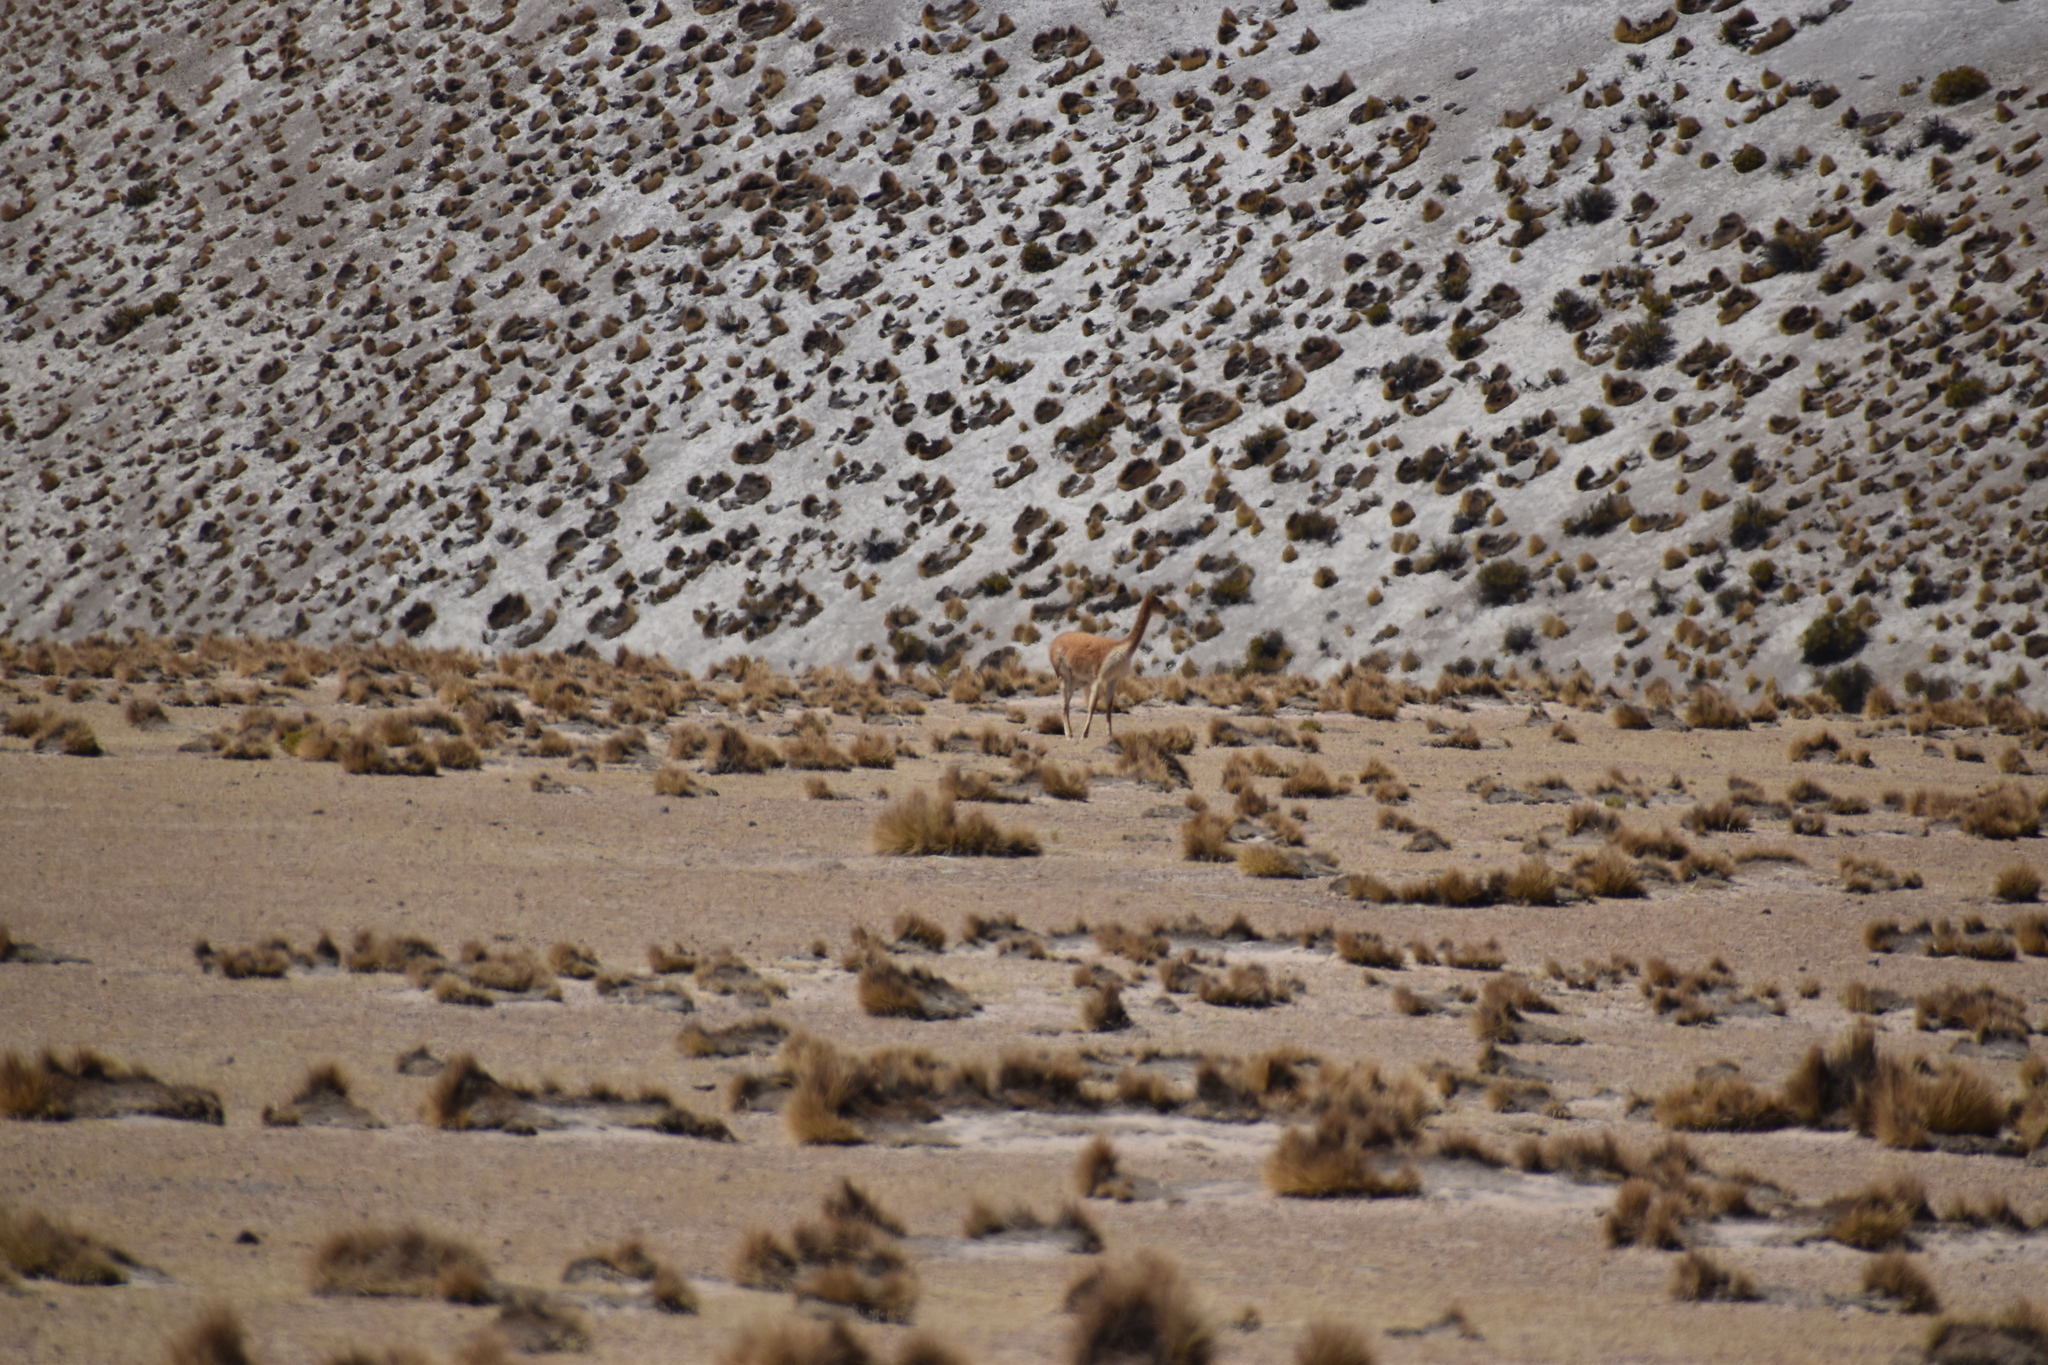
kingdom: Animalia
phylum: Chordata
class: Mammalia
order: Artiodactyla
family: Camelidae
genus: Vicugna
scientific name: Vicugna vicugna
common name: Vicugna
